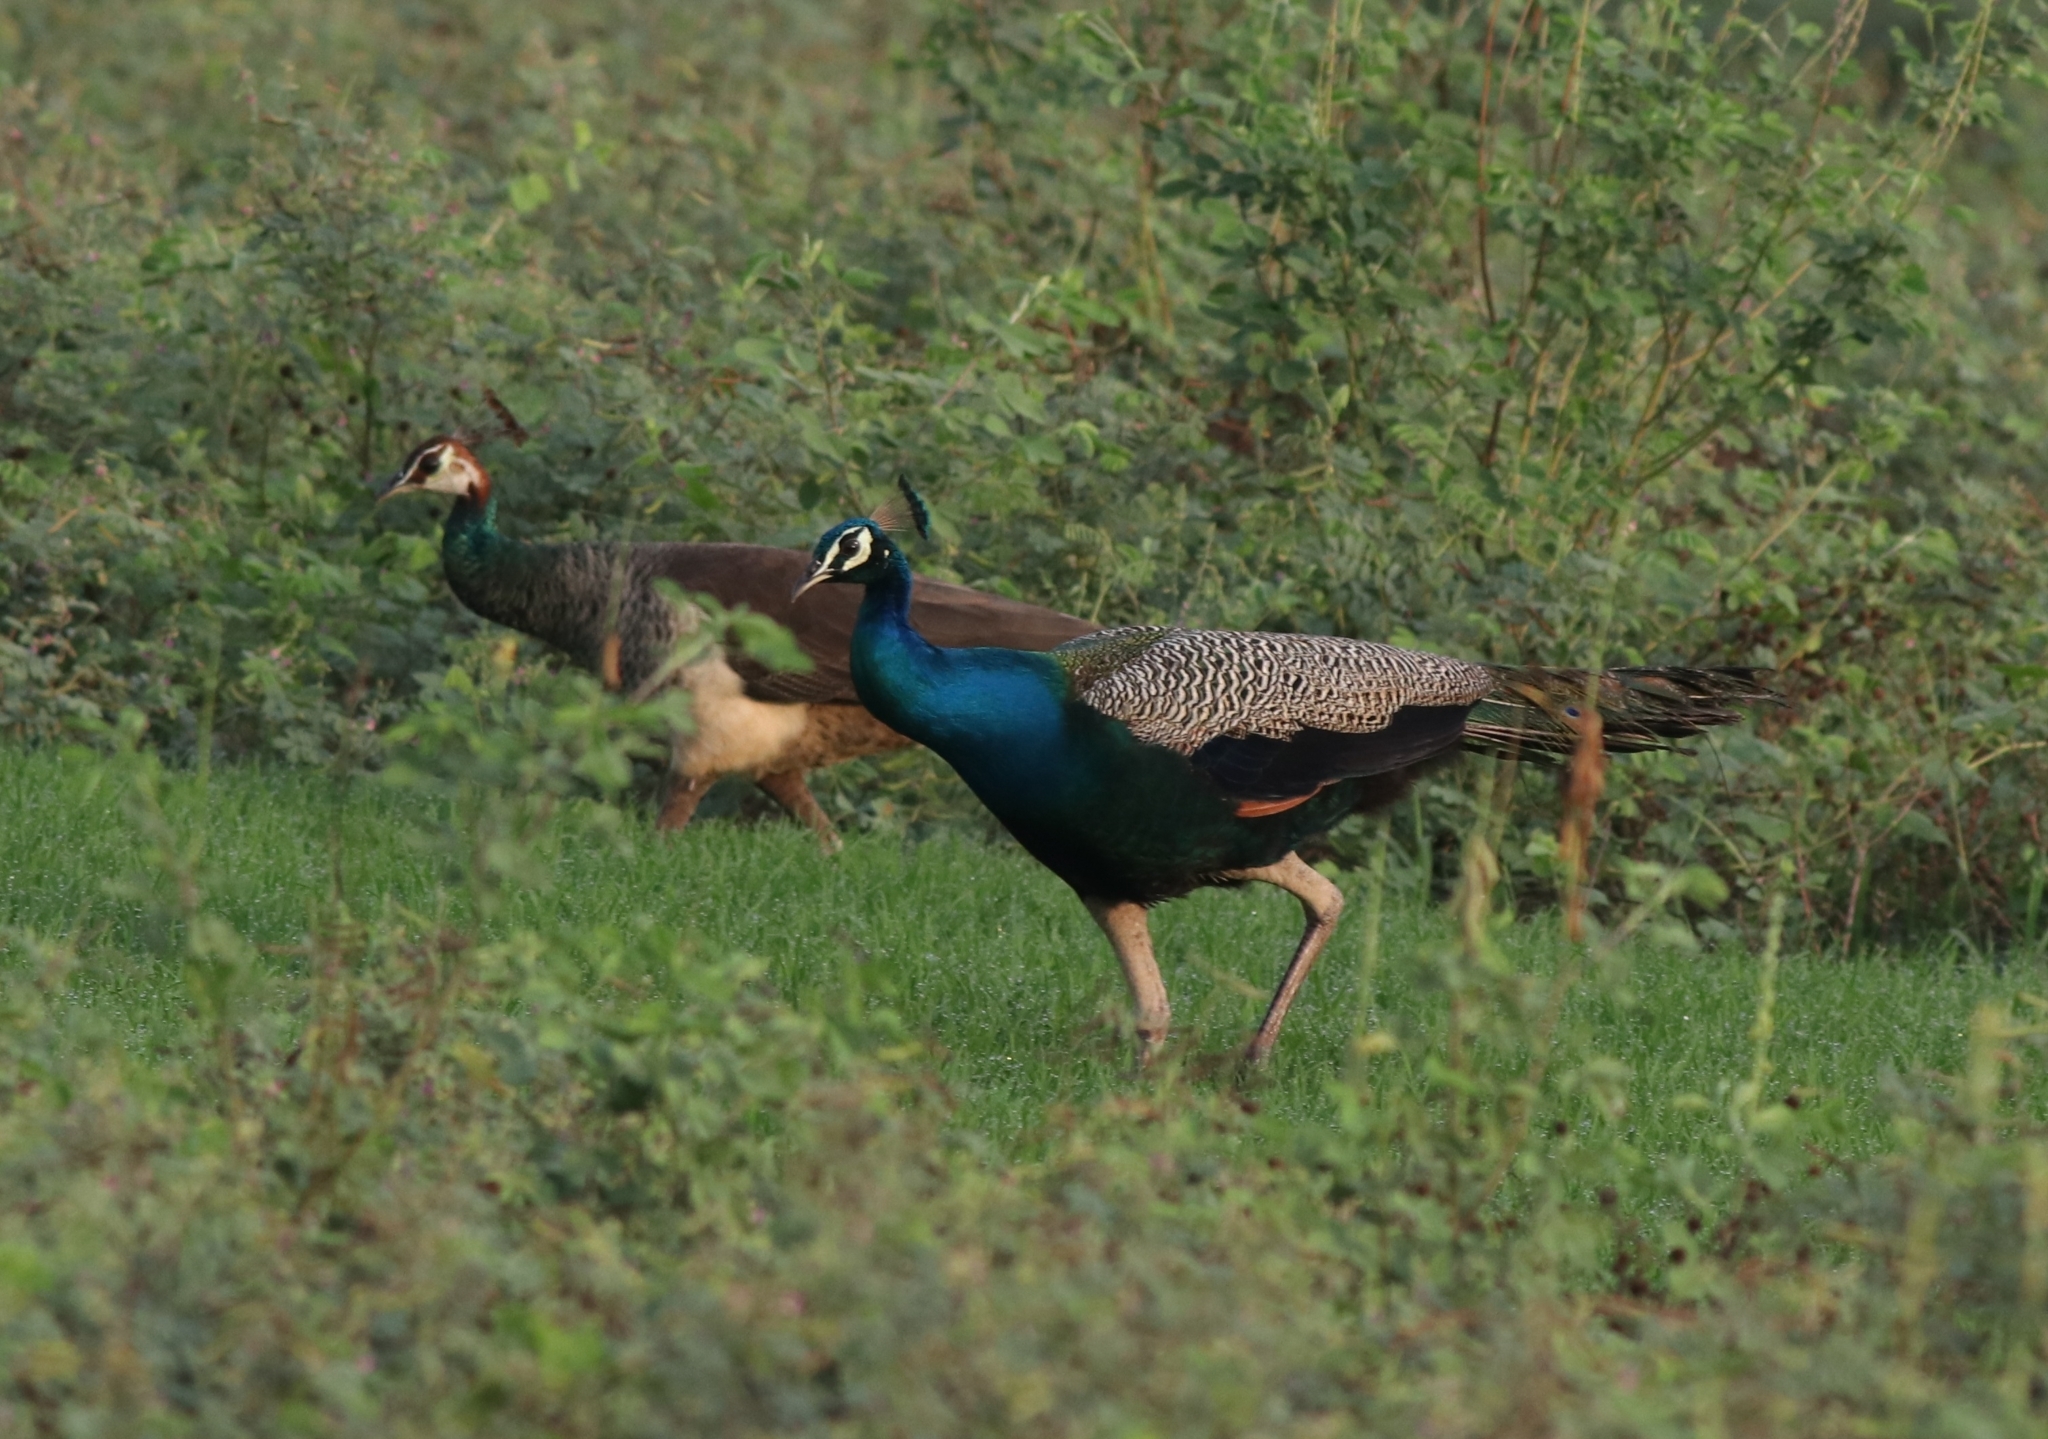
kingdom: Animalia
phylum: Chordata
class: Aves
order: Galliformes
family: Phasianidae
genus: Pavo
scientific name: Pavo cristatus
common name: Indian peafowl
